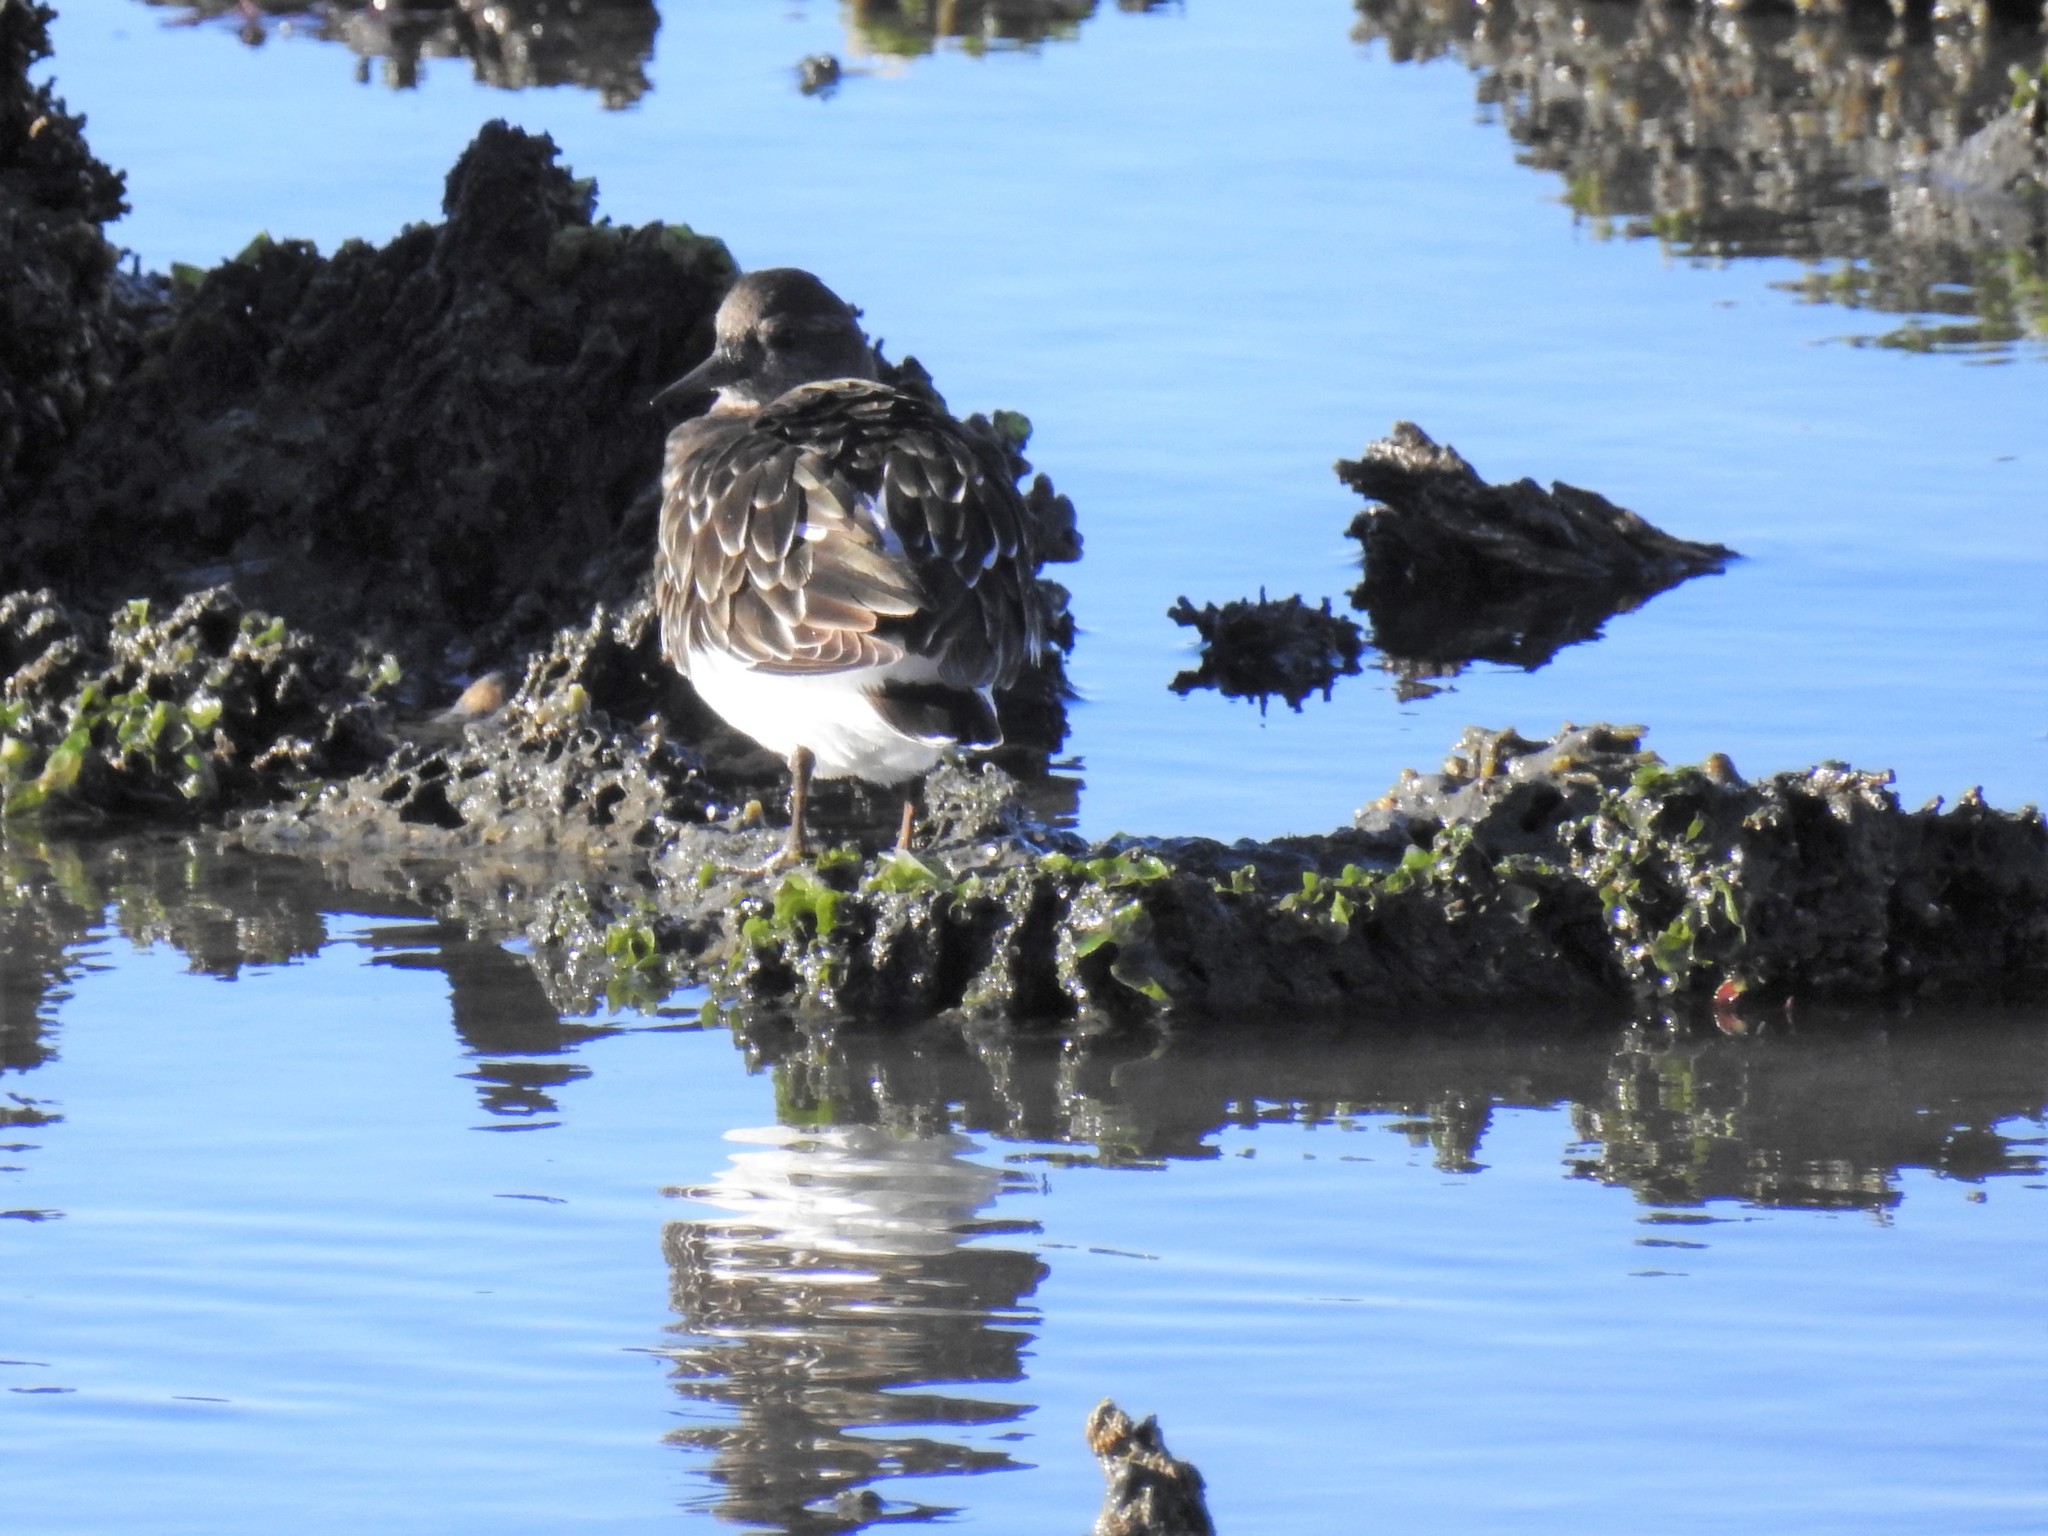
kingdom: Animalia
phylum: Chordata
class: Aves
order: Charadriiformes
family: Scolopacidae
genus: Arenaria
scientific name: Arenaria melanocephala
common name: Black turnstone
